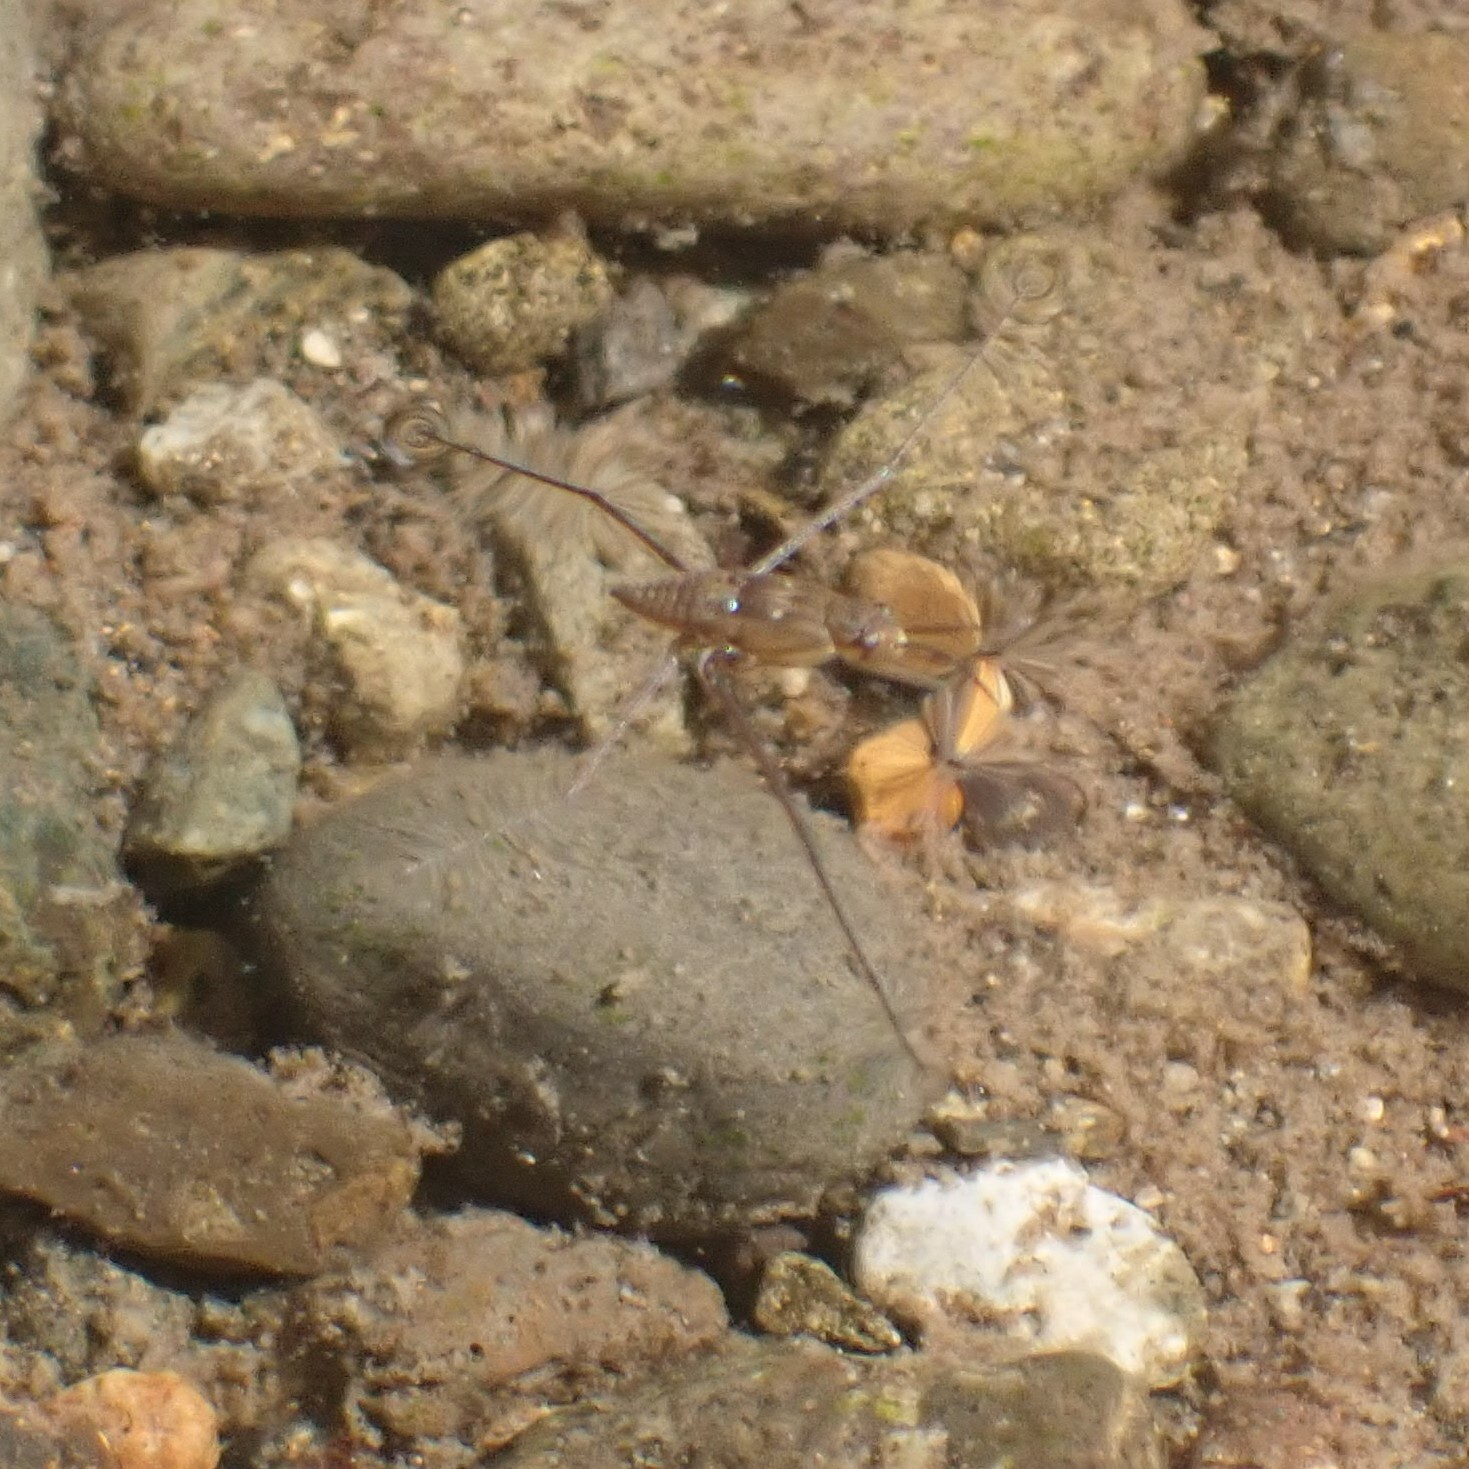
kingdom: Animalia
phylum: Arthropoda
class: Insecta
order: Hemiptera
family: Gerridae
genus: Aquarius
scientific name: Aquarius remigis
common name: Common water strider
